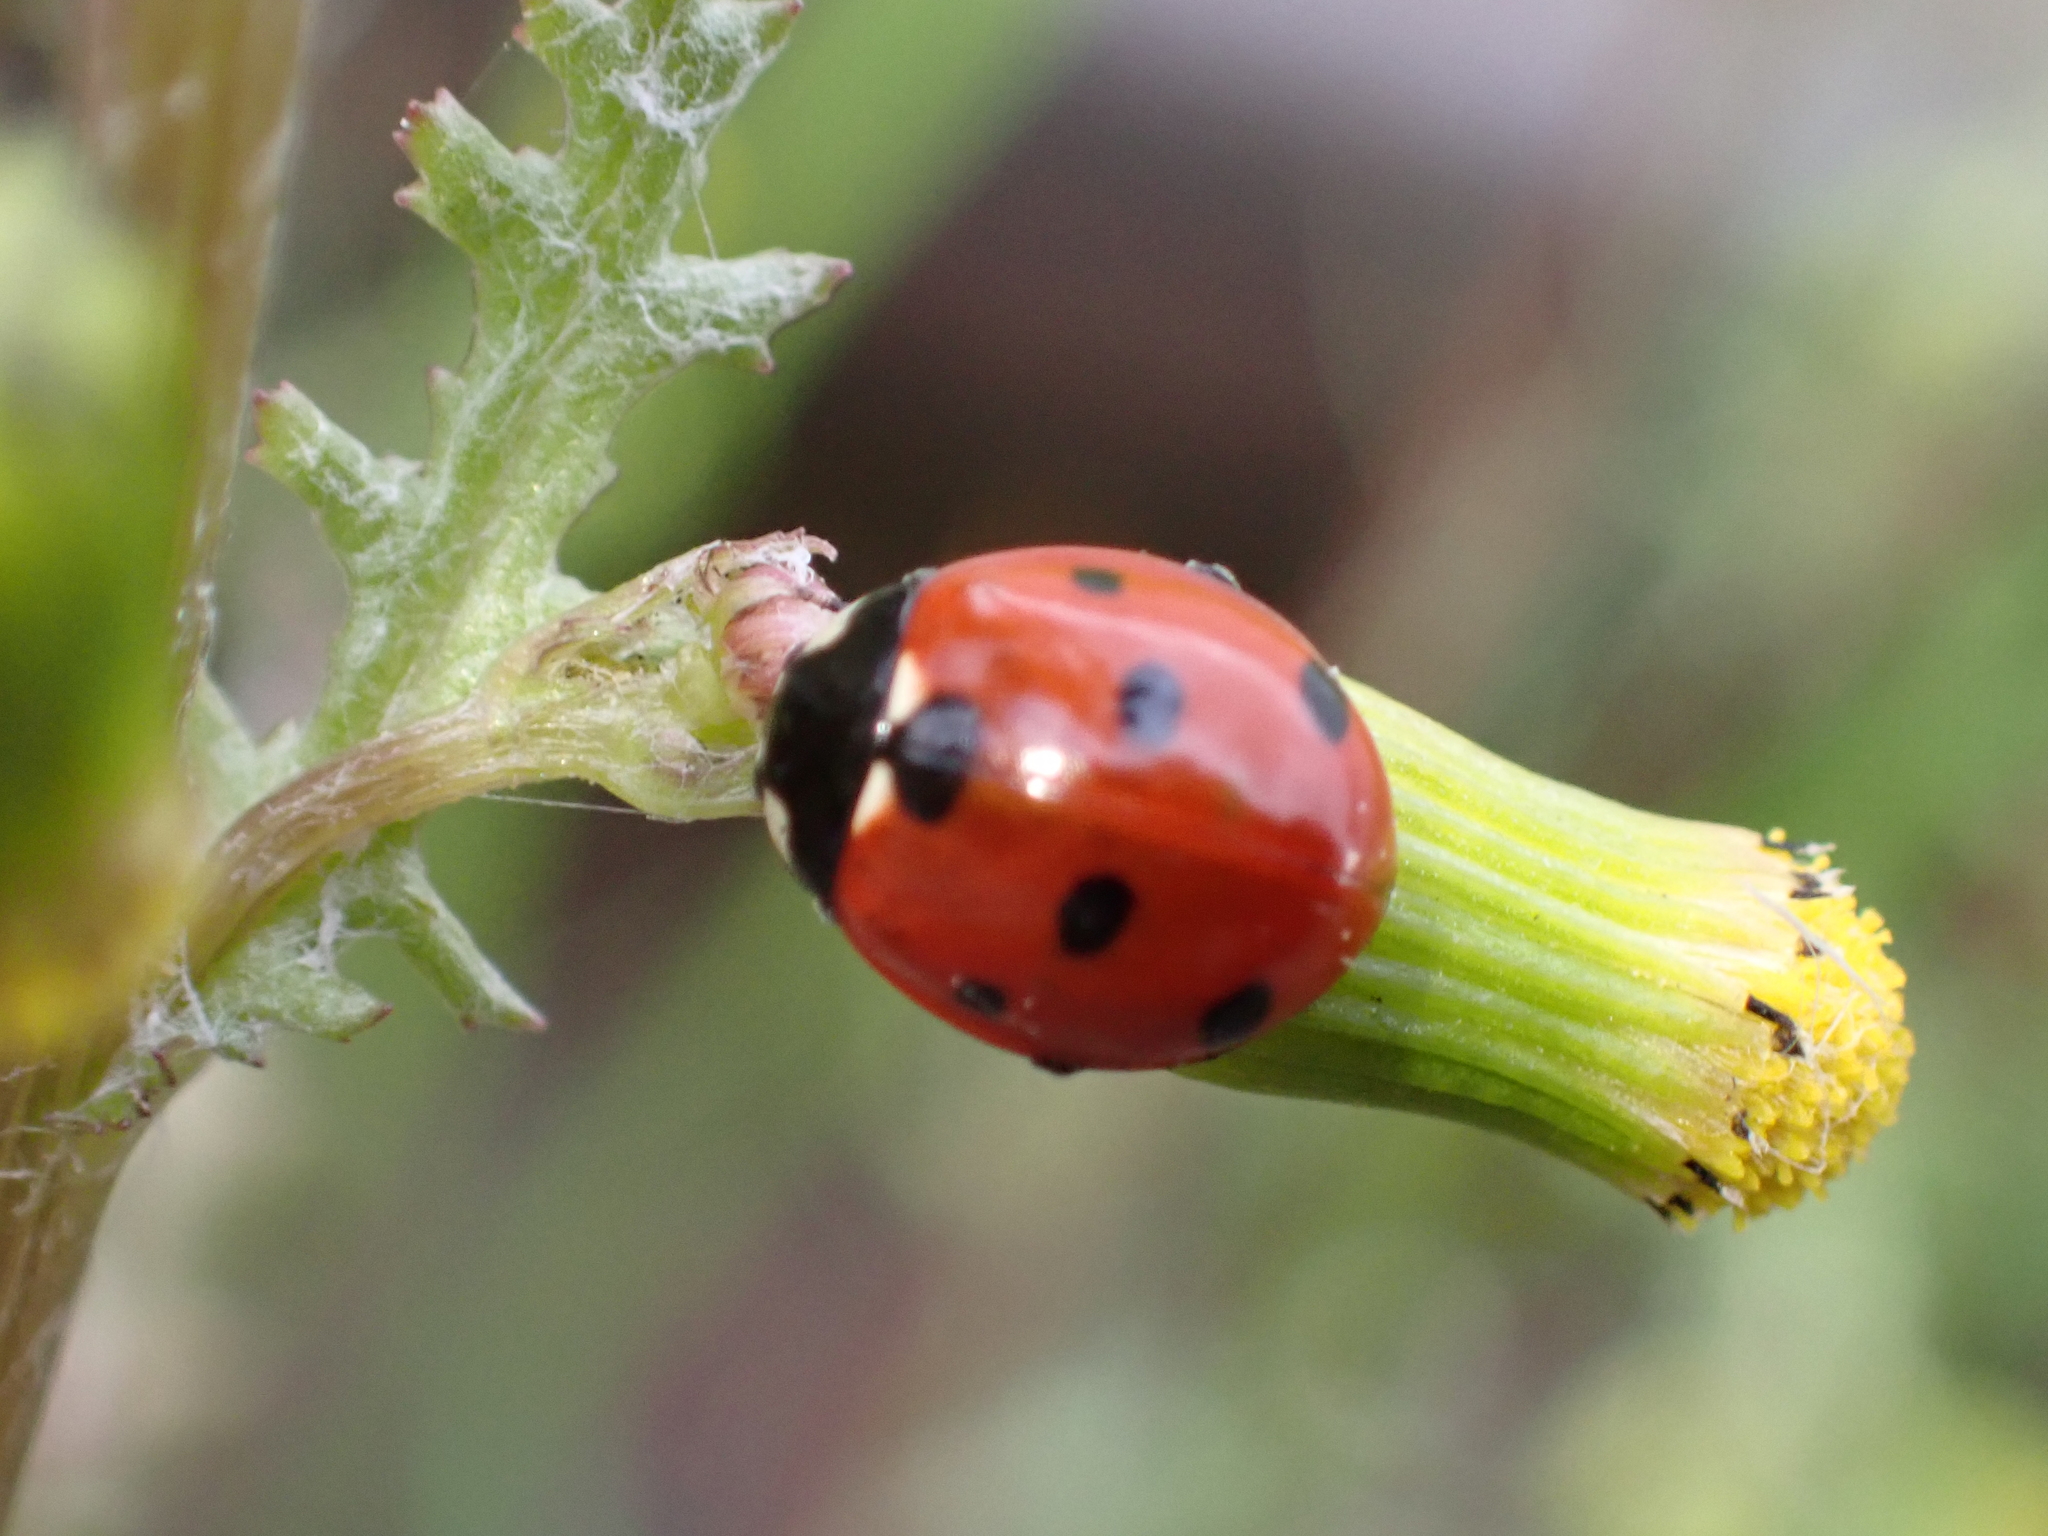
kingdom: Animalia
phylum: Arthropoda
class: Insecta
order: Coleoptera
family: Coccinellidae
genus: Coccinella
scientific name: Coccinella septempunctata
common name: Sevenspotted lady beetle
